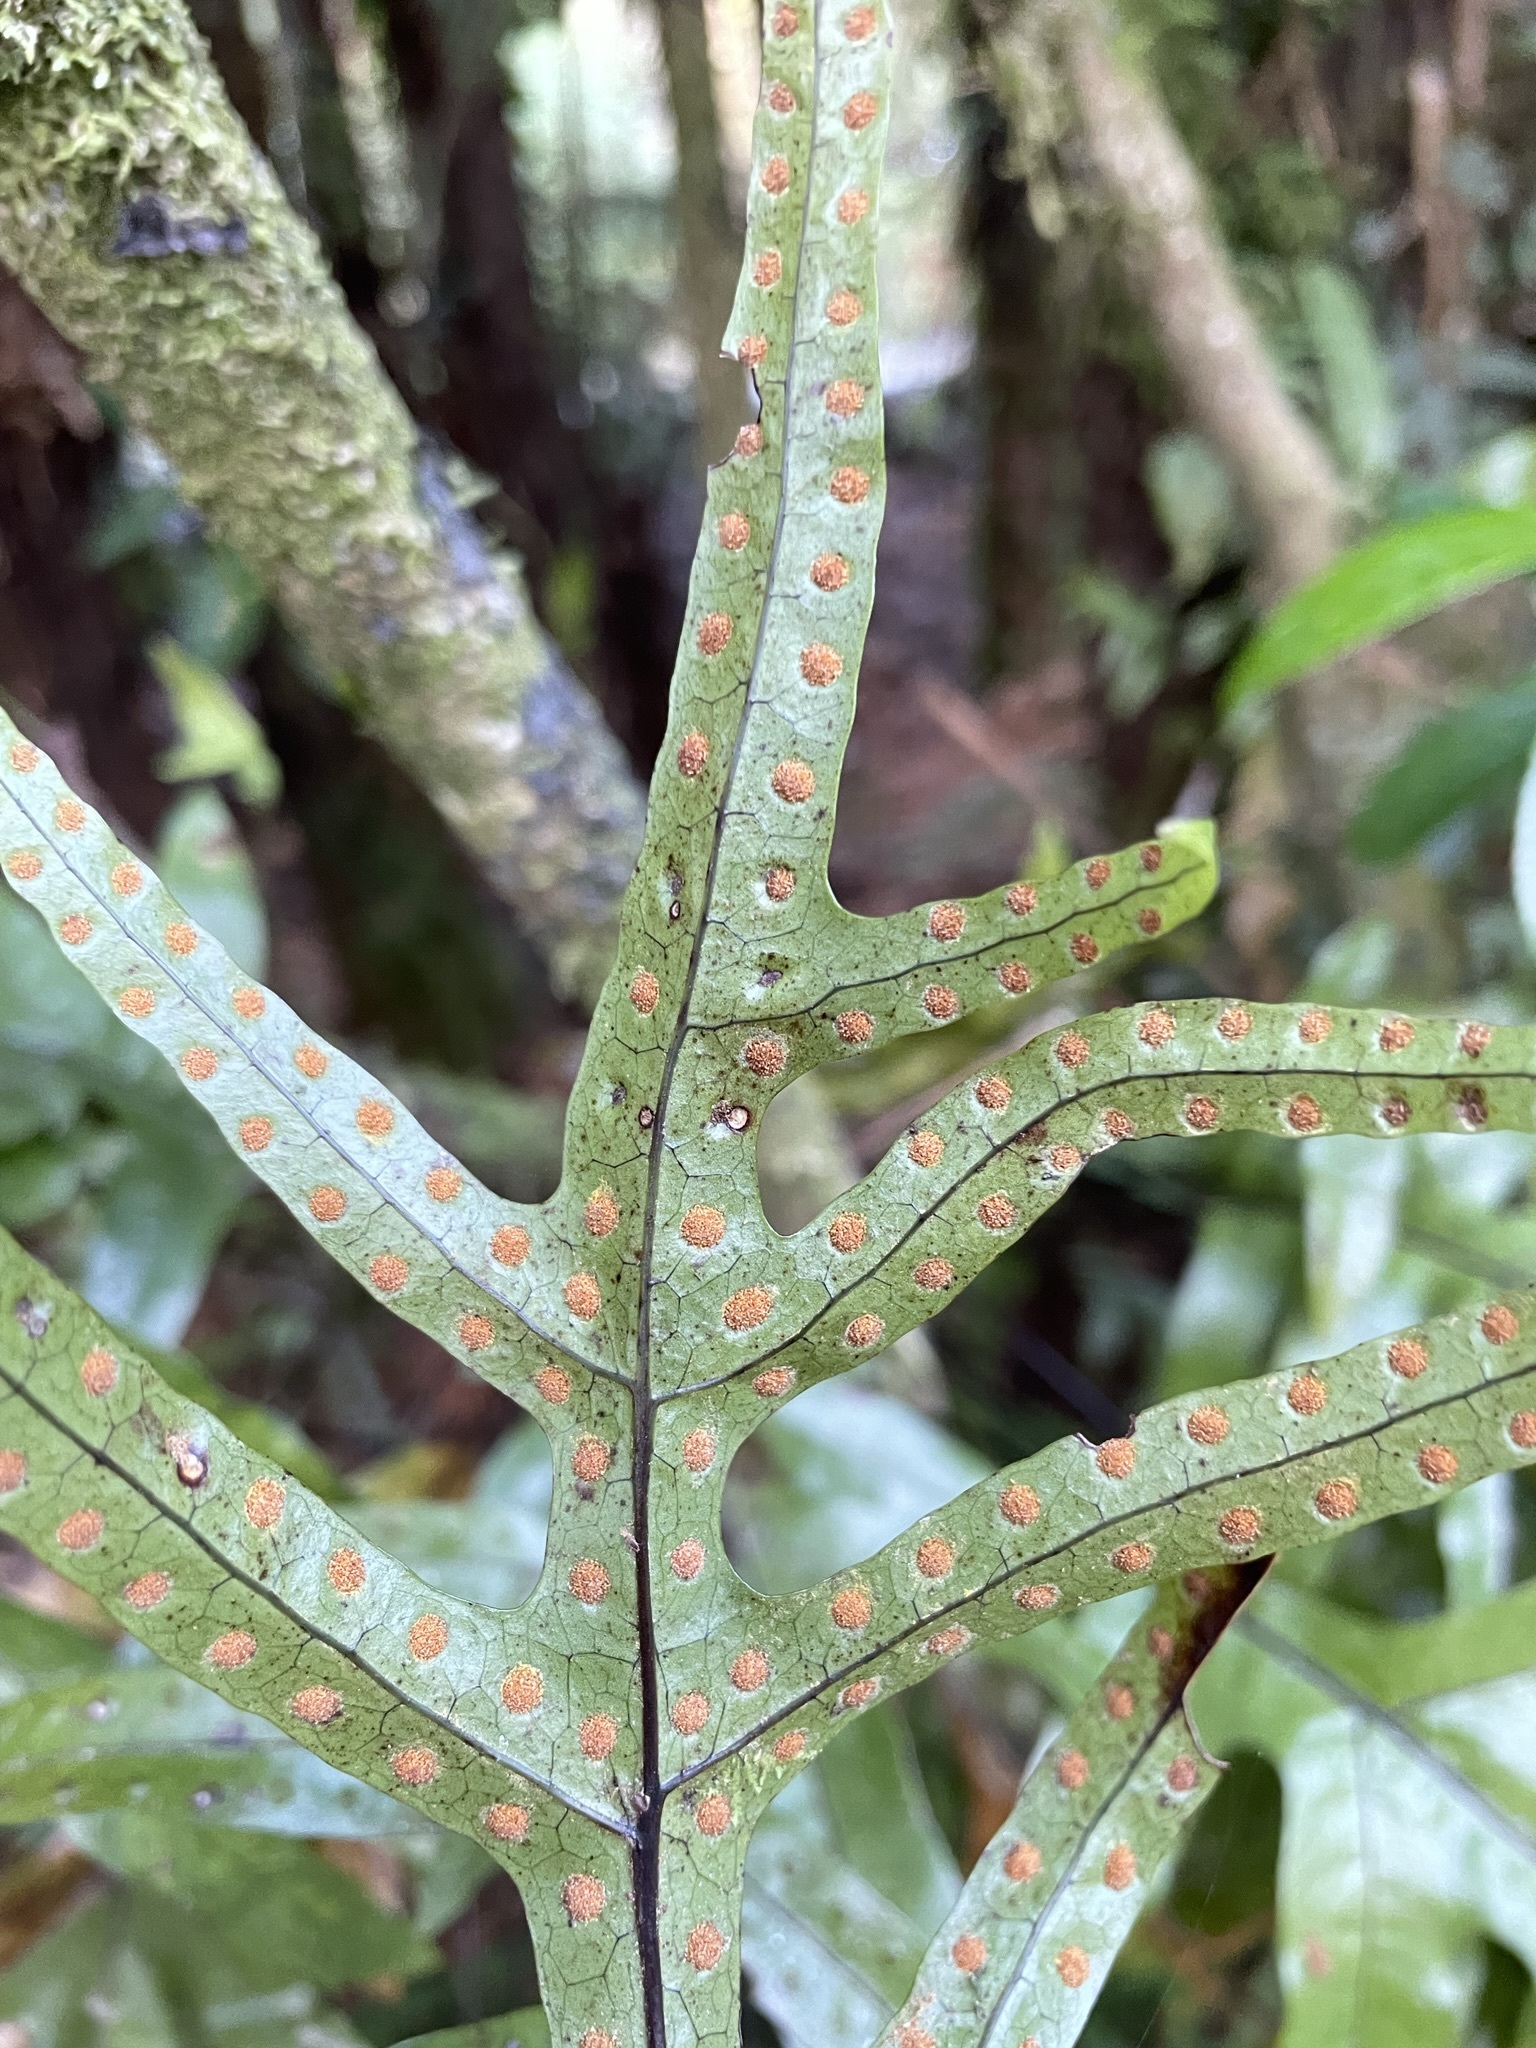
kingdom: Plantae
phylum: Tracheophyta
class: Polypodiopsida
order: Polypodiales
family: Polypodiaceae
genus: Lecanopteris
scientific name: Lecanopteris pustulata
